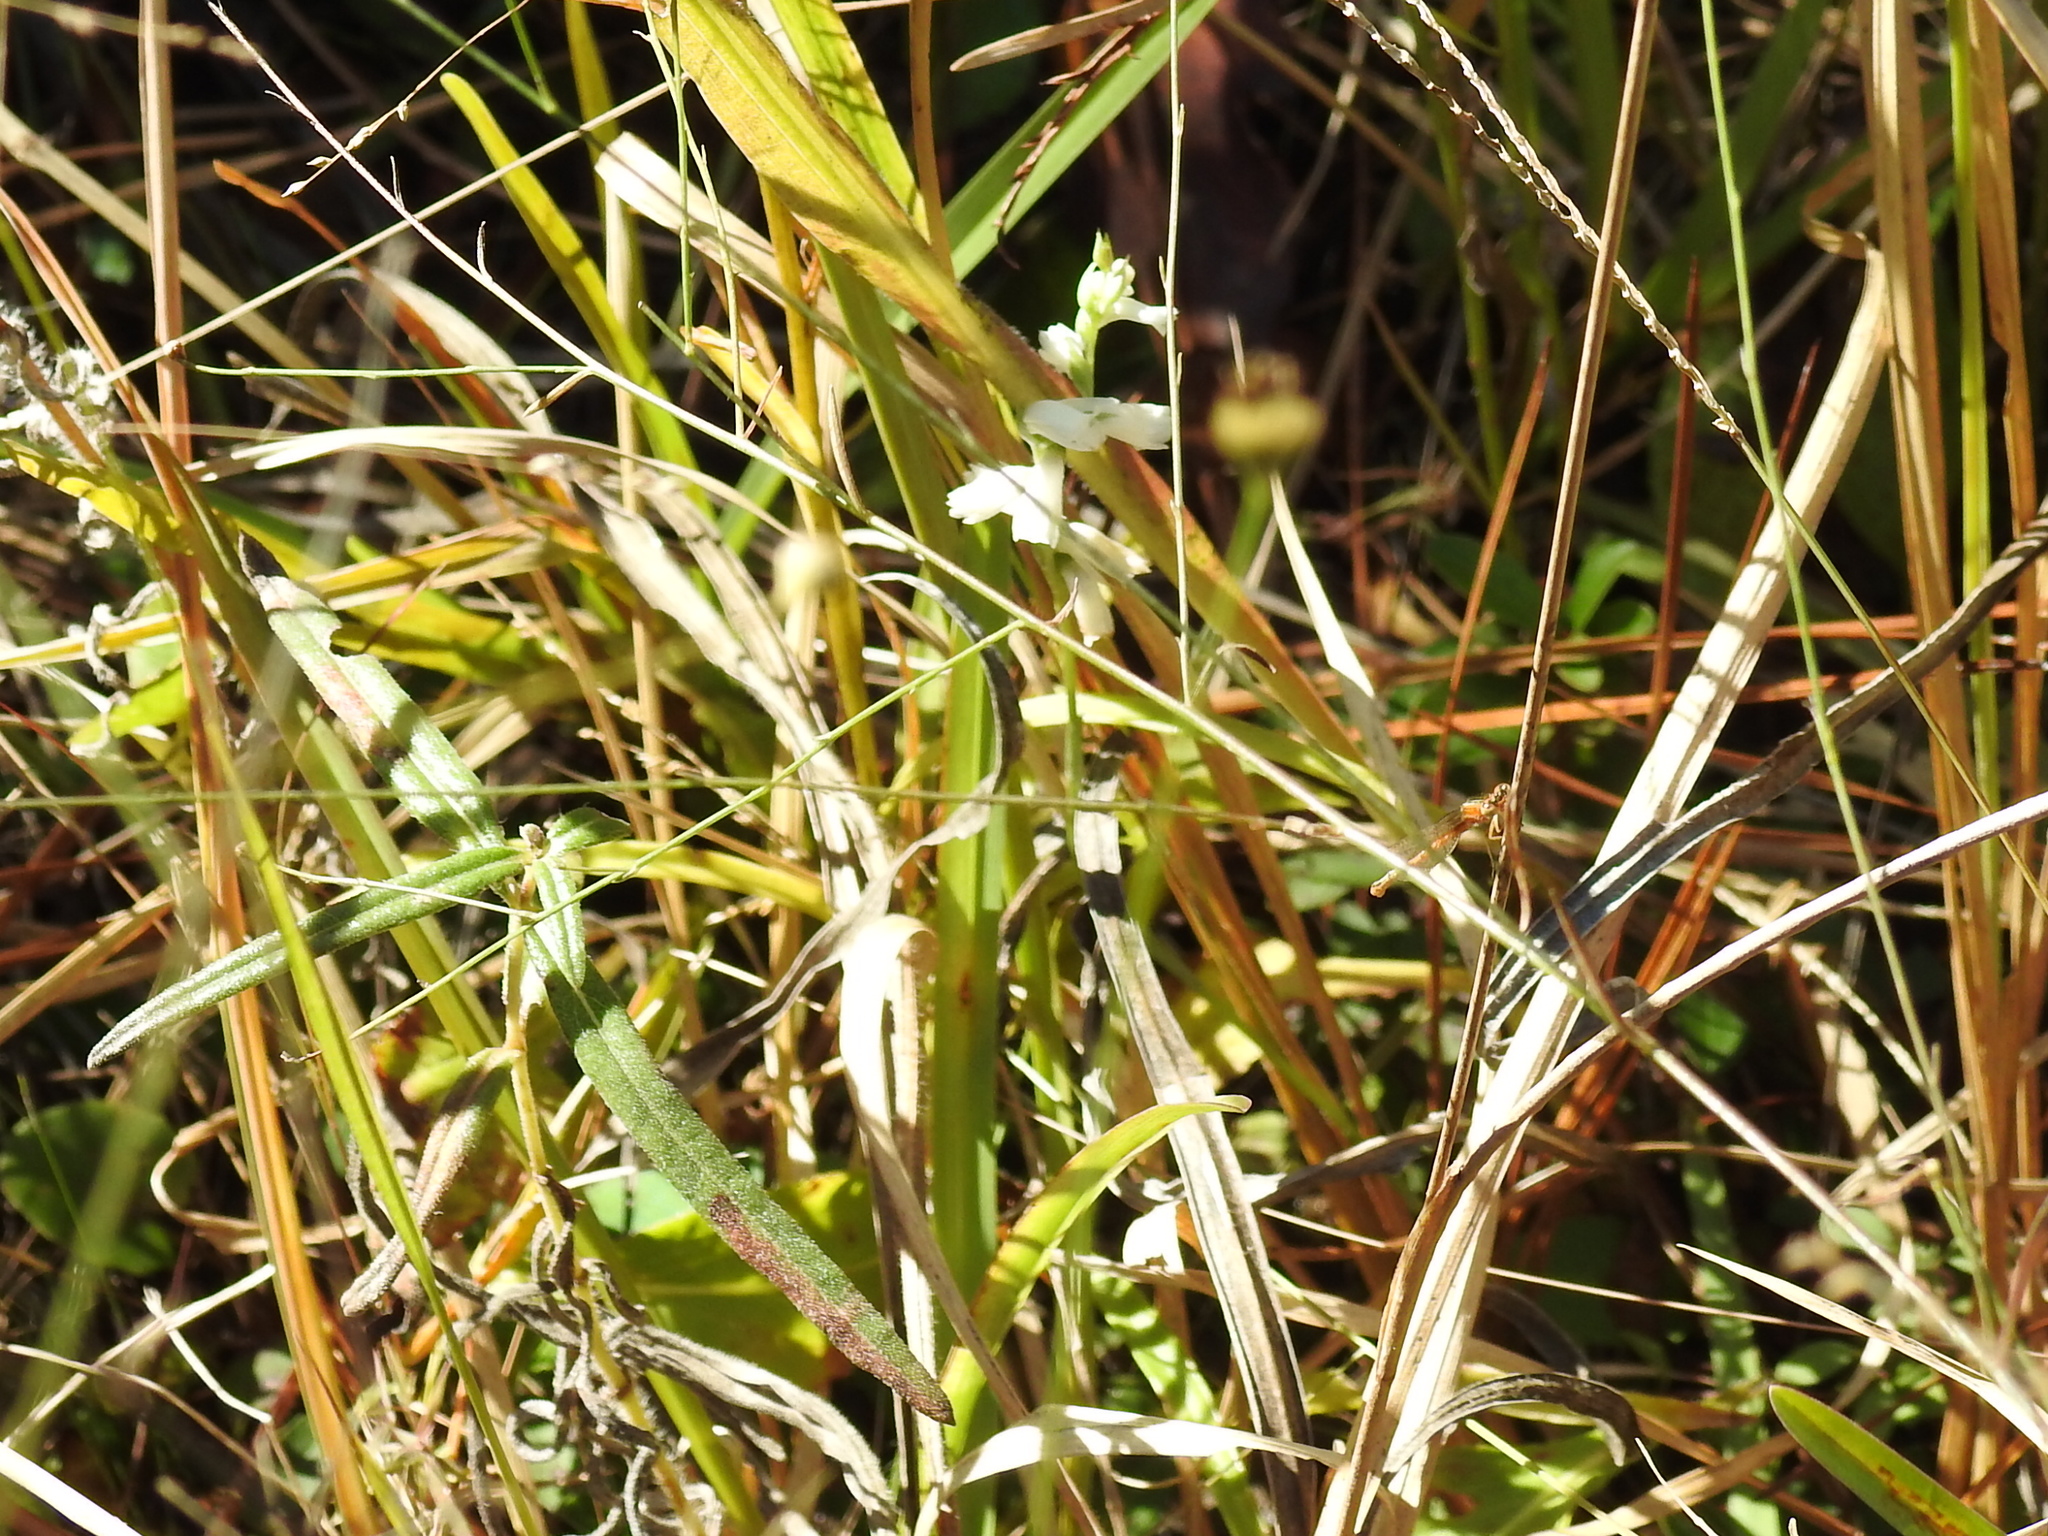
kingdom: Plantae
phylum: Tracheophyta
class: Liliopsida
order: Asparagales
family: Orchidaceae
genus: Spiranthes
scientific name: Spiranthes cernua
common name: Dropping ladies'-tresses
